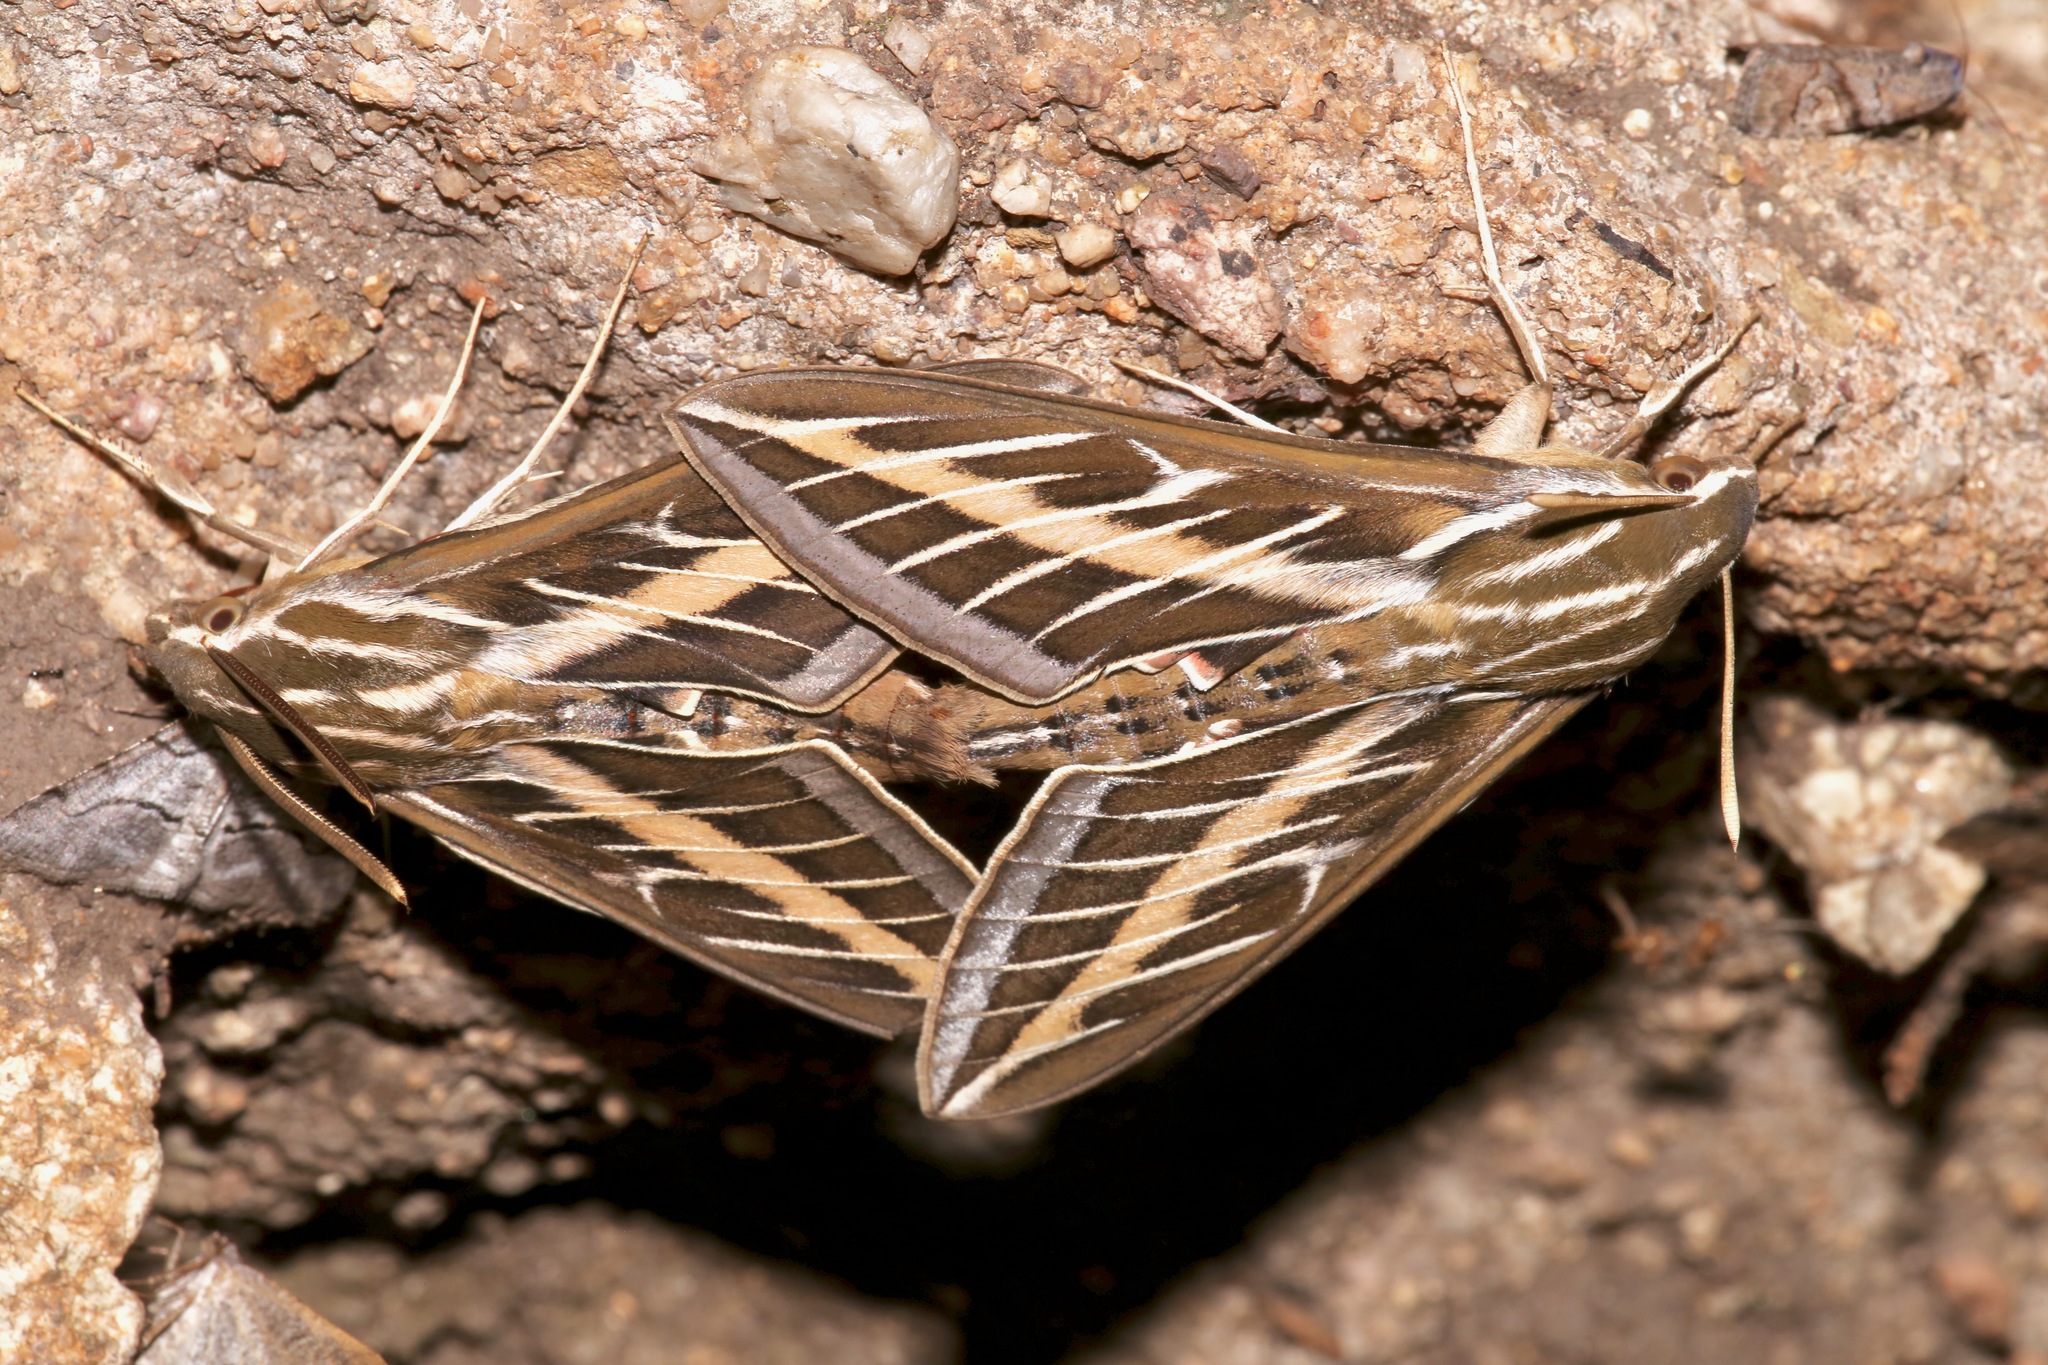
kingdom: Animalia
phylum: Arthropoda
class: Insecta
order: Lepidoptera
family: Sphingidae
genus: Hyles
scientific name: Hyles lineata
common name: White-lined sphinx
